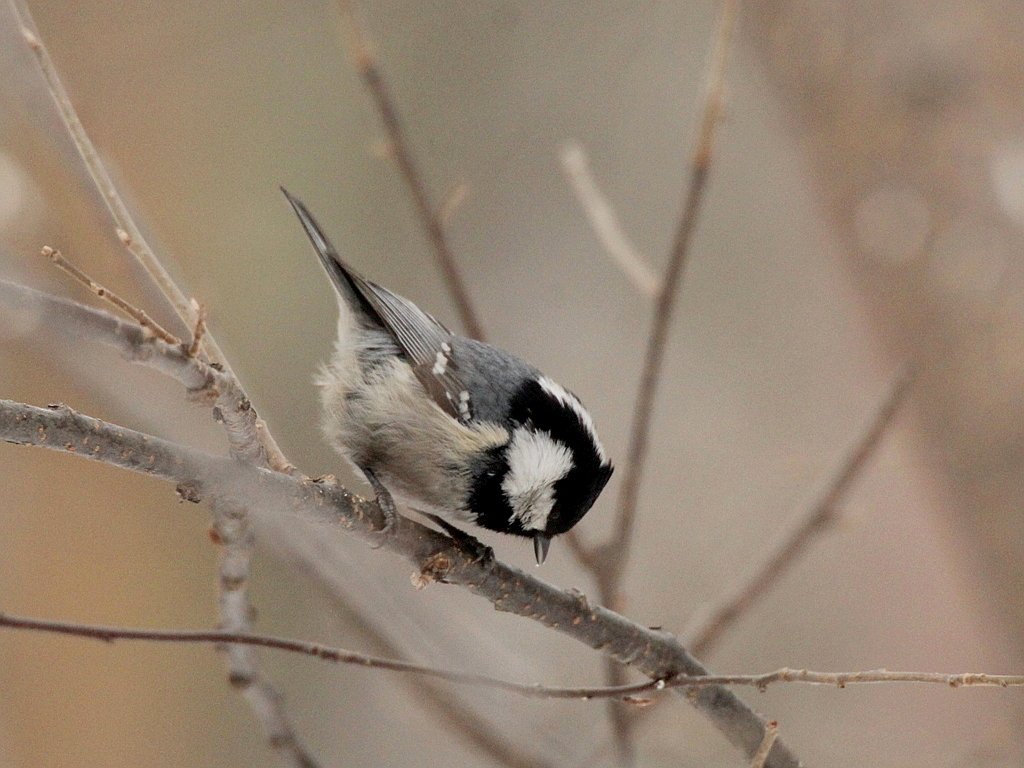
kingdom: Animalia
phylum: Chordata
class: Aves
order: Passeriformes
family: Paridae
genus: Periparus
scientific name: Periparus ater
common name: Coal tit
